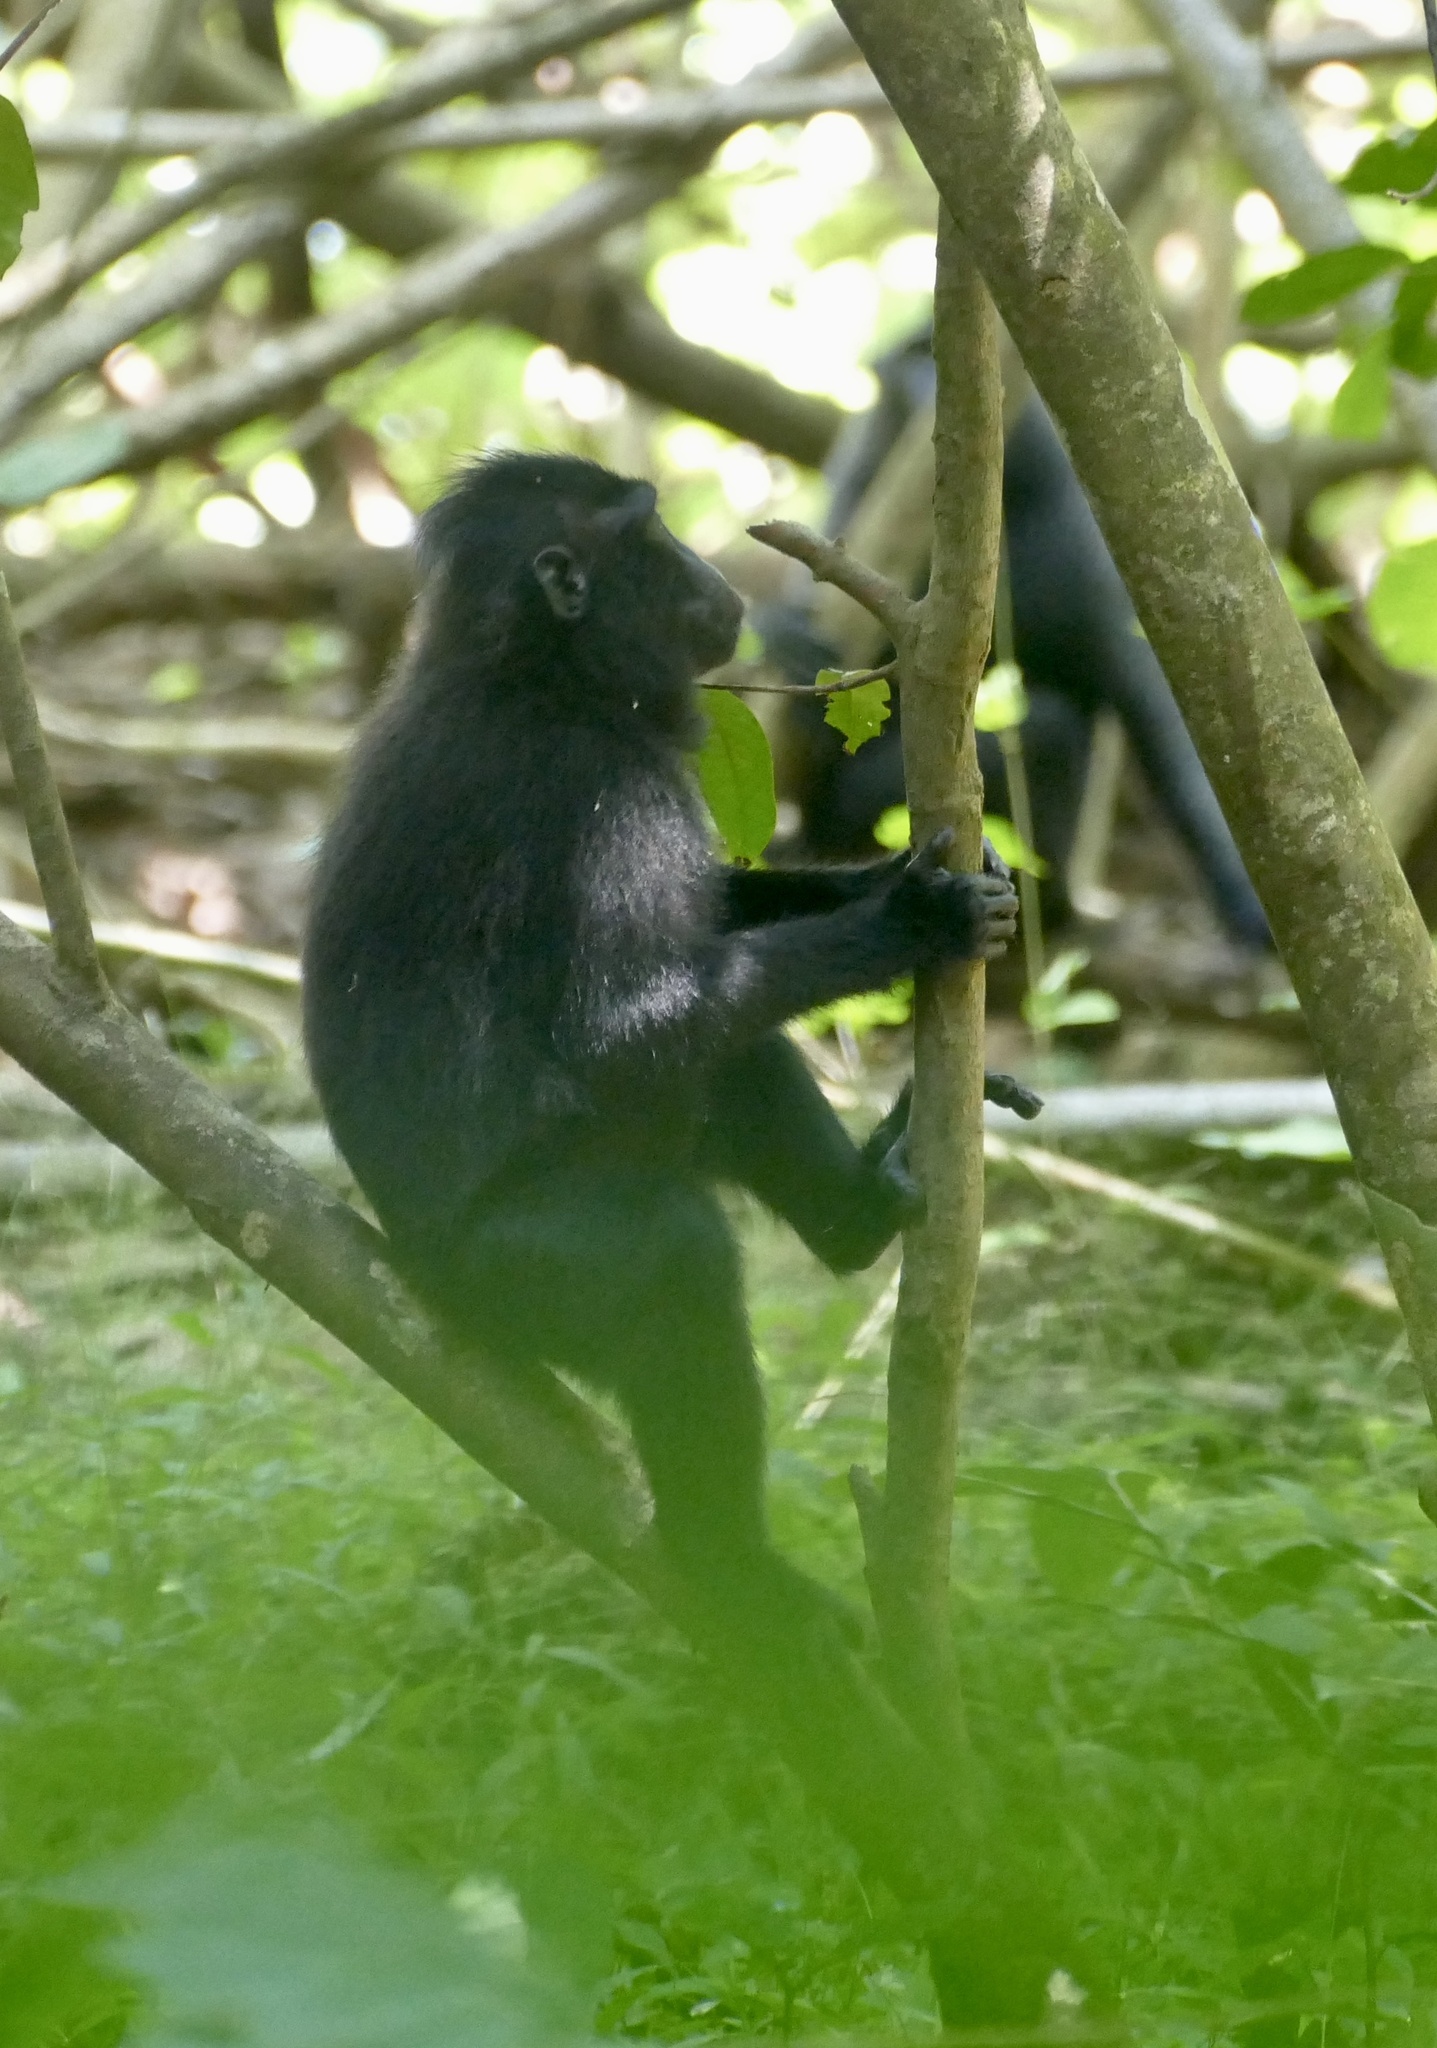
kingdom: Animalia
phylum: Chordata
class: Mammalia
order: Primates
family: Cercopithecidae
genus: Macaca
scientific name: Macaca nigra
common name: Celebes crested macaque
